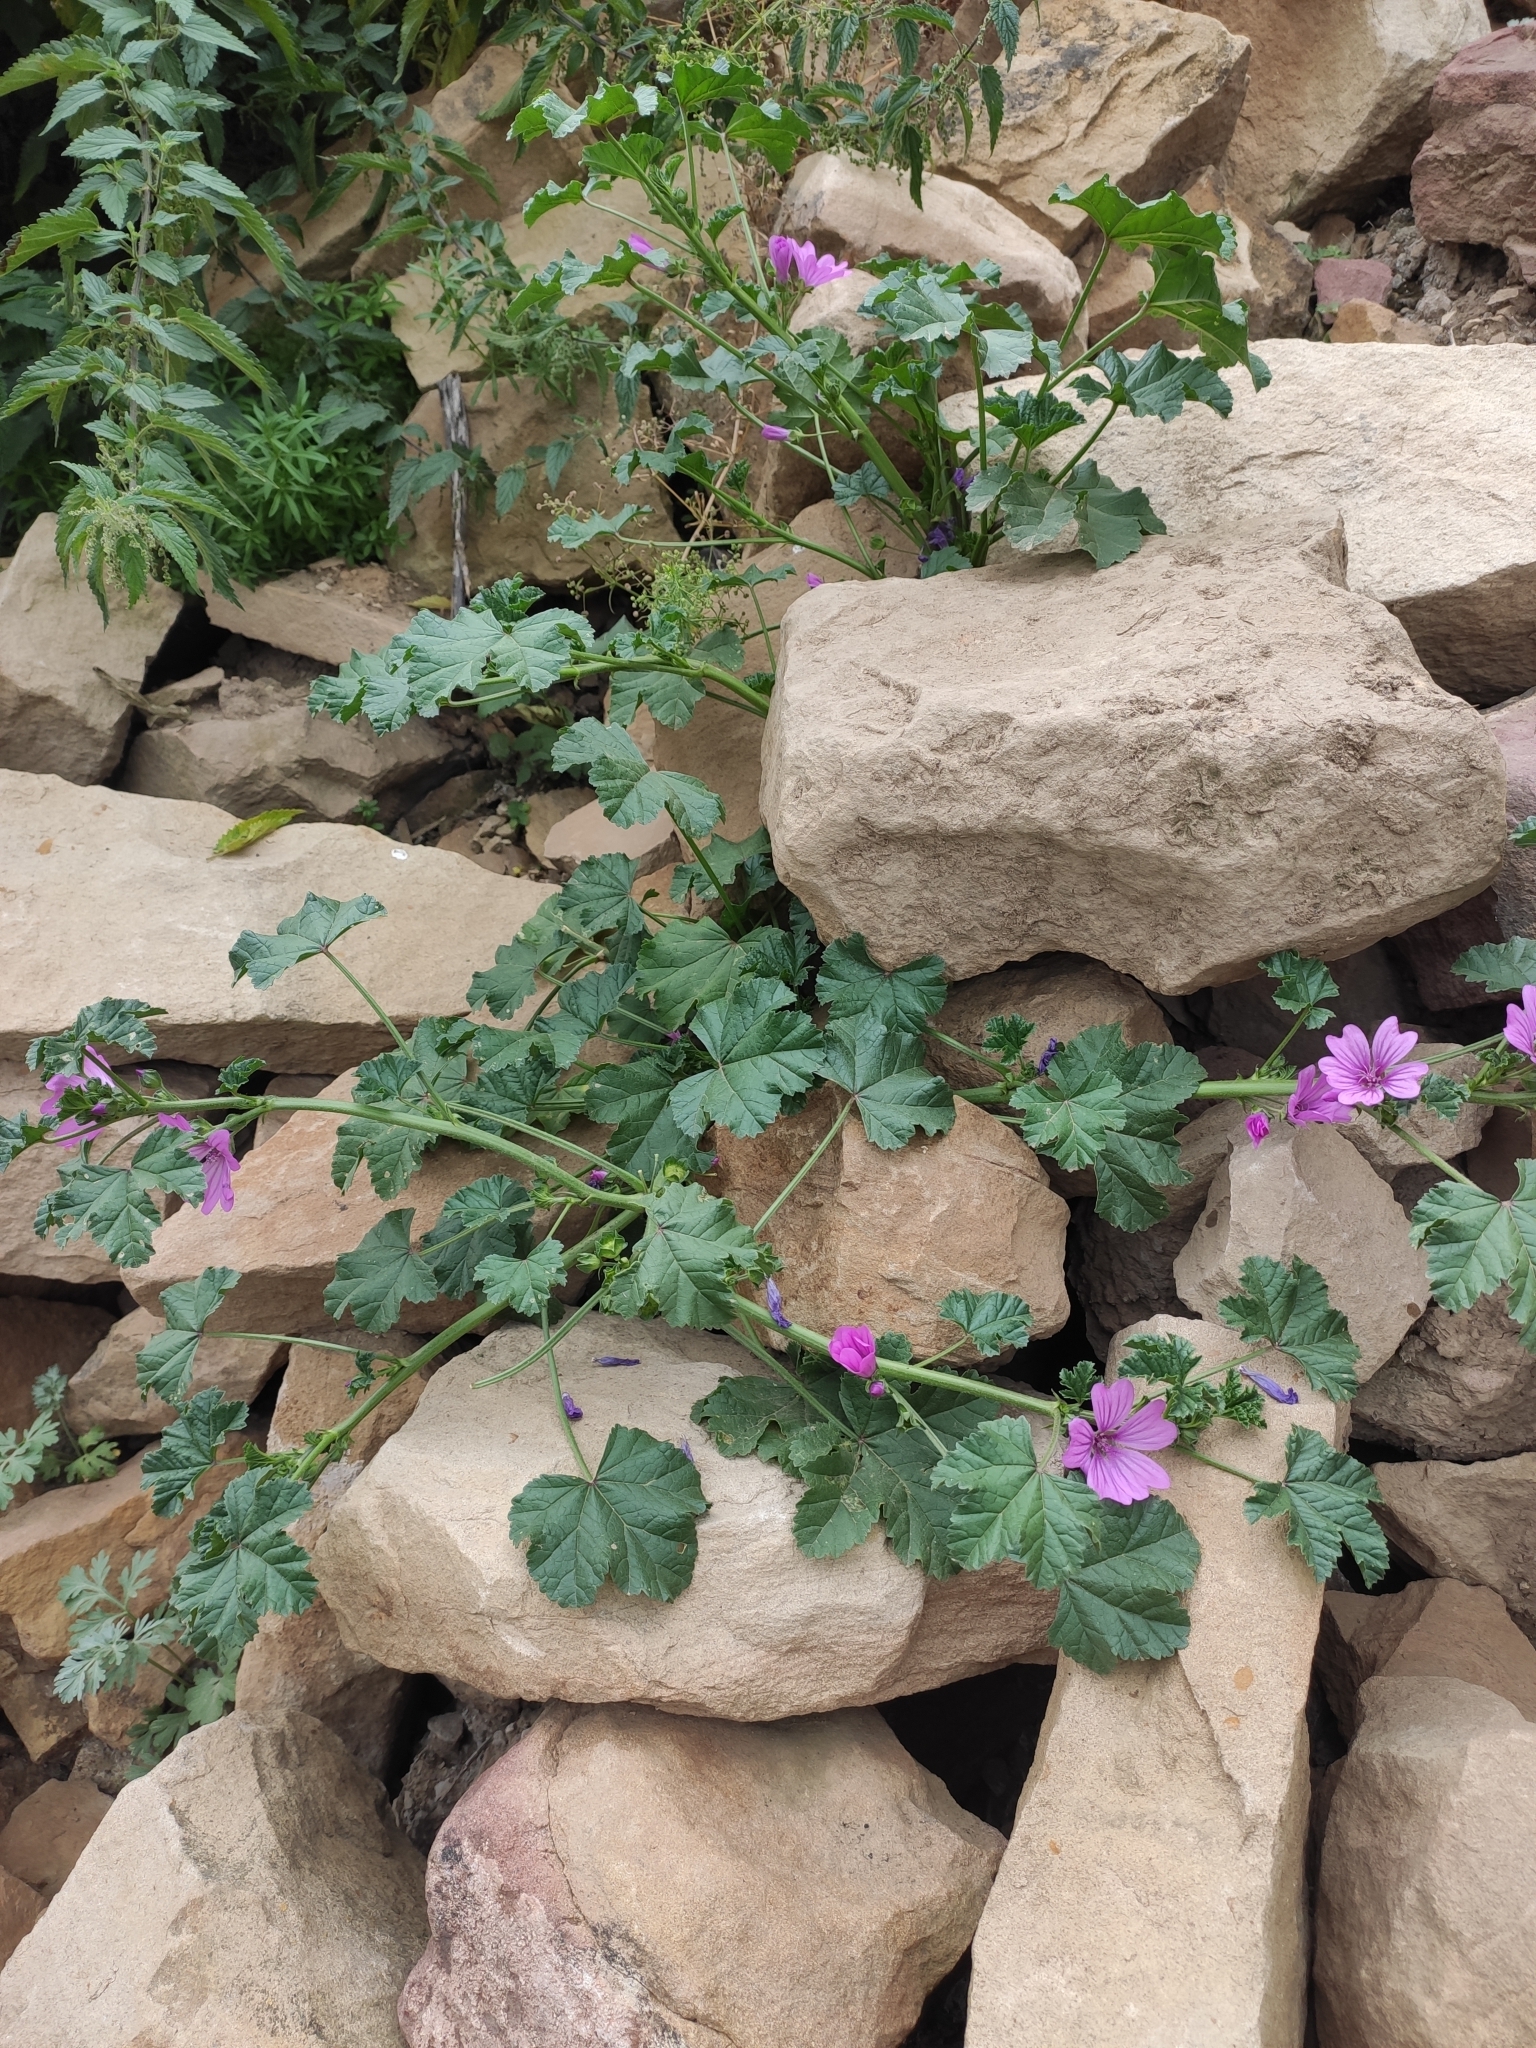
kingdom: Plantae
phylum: Tracheophyta
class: Magnoliopsida
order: Malvales
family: Malvaceae
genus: Malva
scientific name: Malva sylvestris
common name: Common mallow
